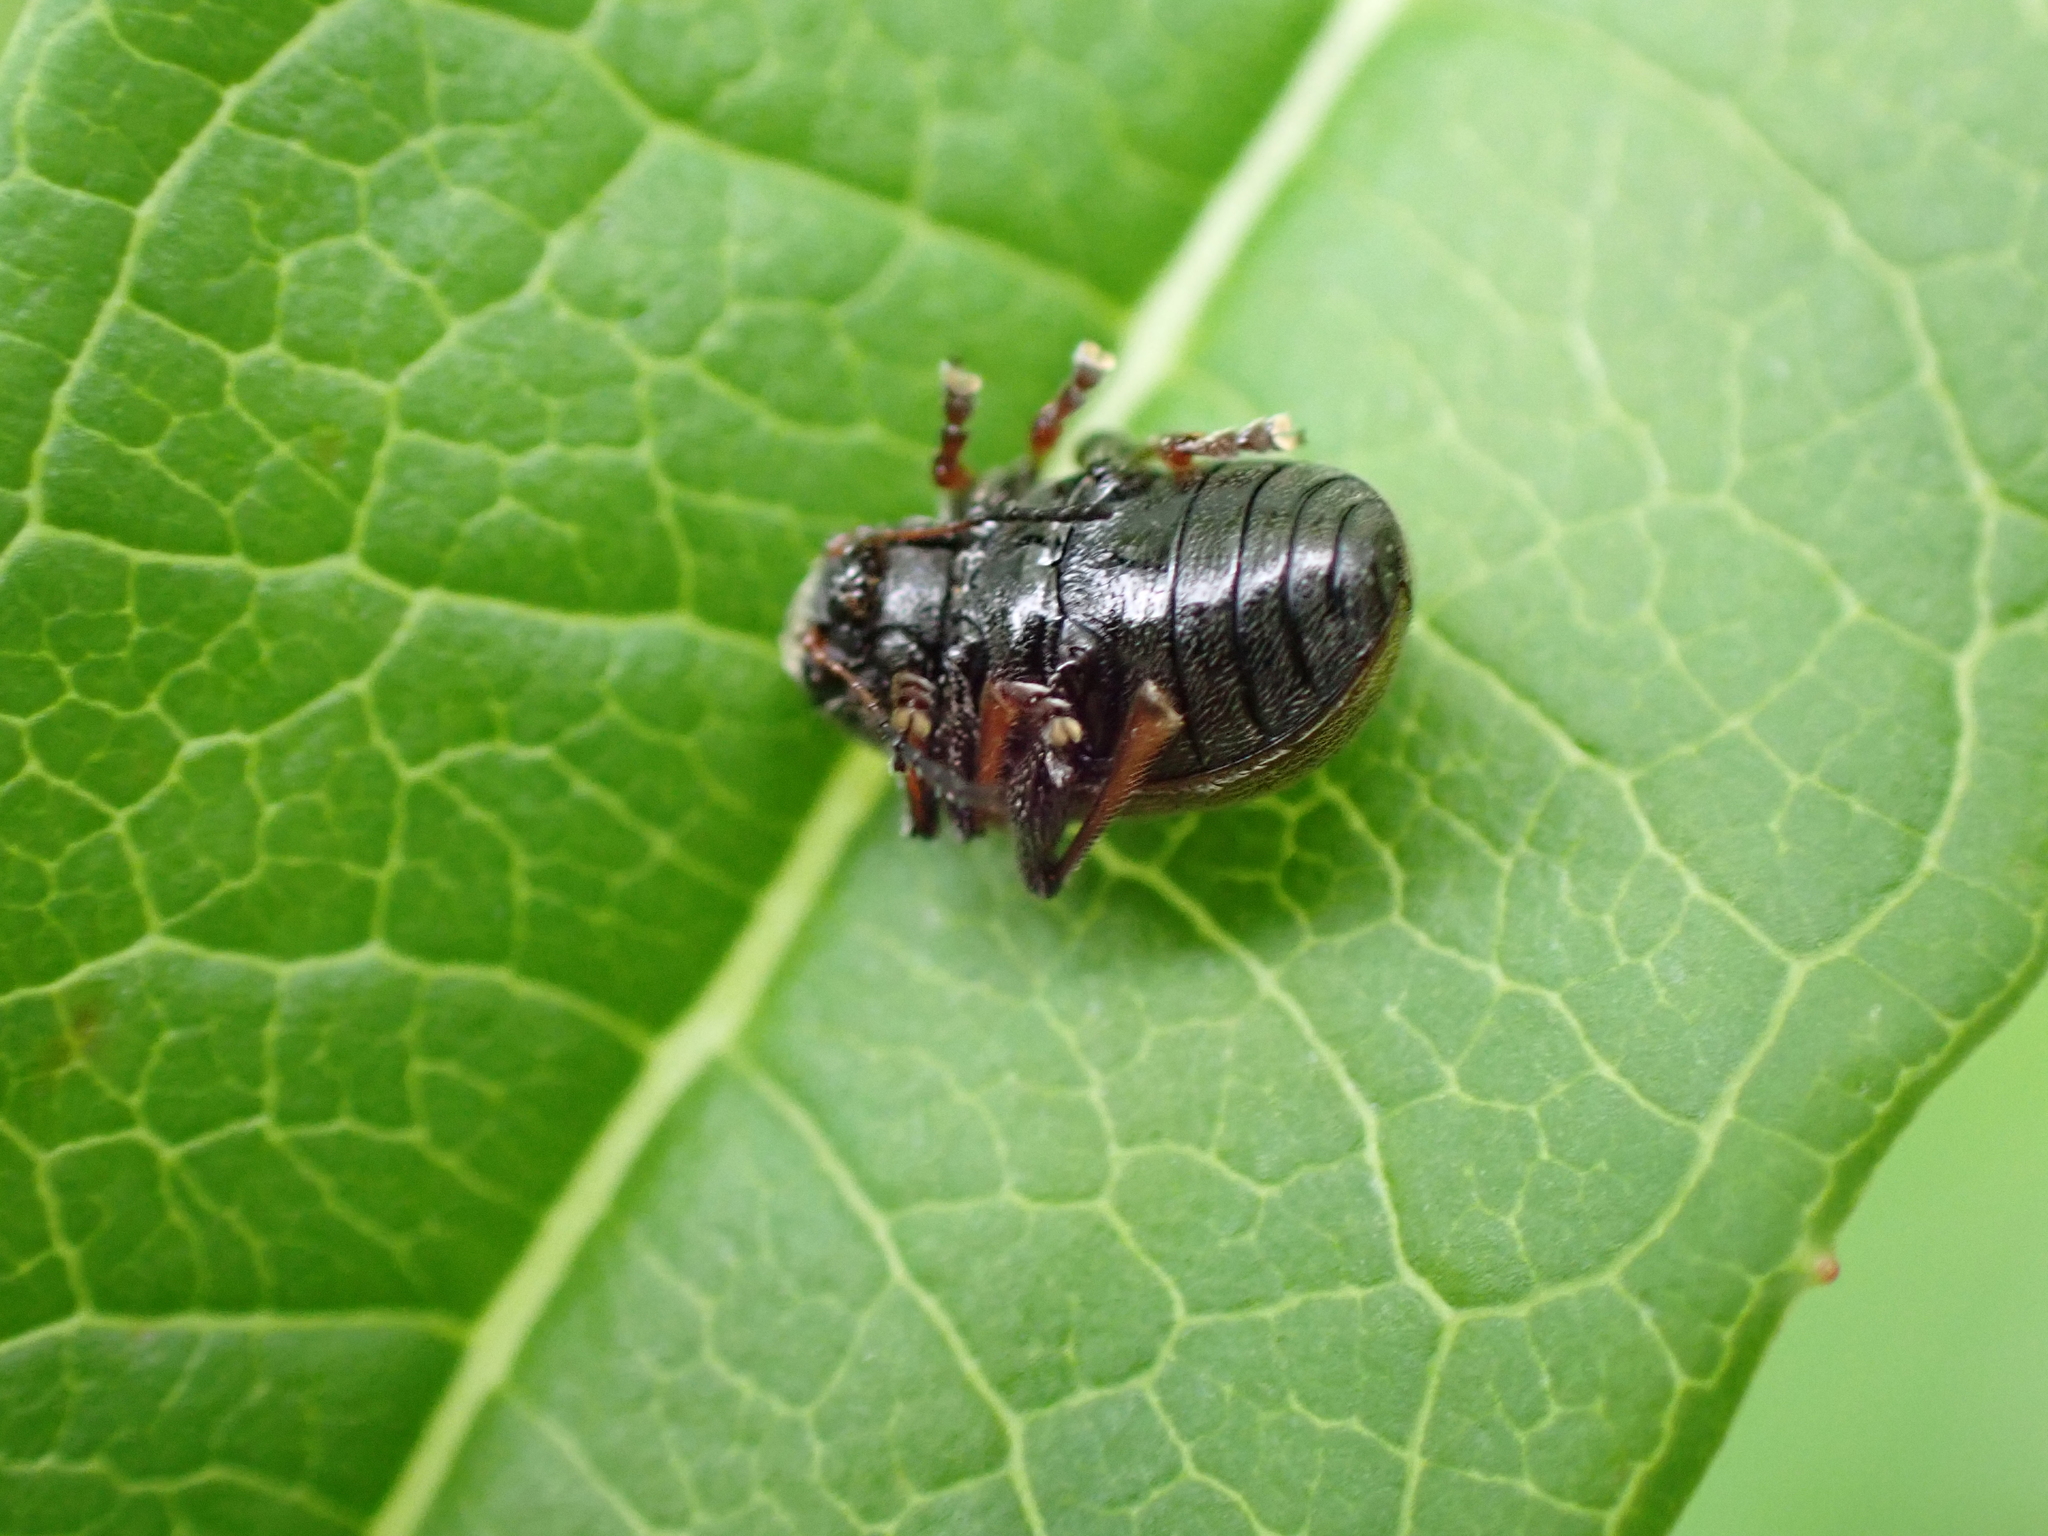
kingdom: Animalia
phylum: Arthropoda
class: Insecta
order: Coleoptera
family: Chrysomelidae
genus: Bromius
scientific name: Bromius obscurus
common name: Western grape rootworm
